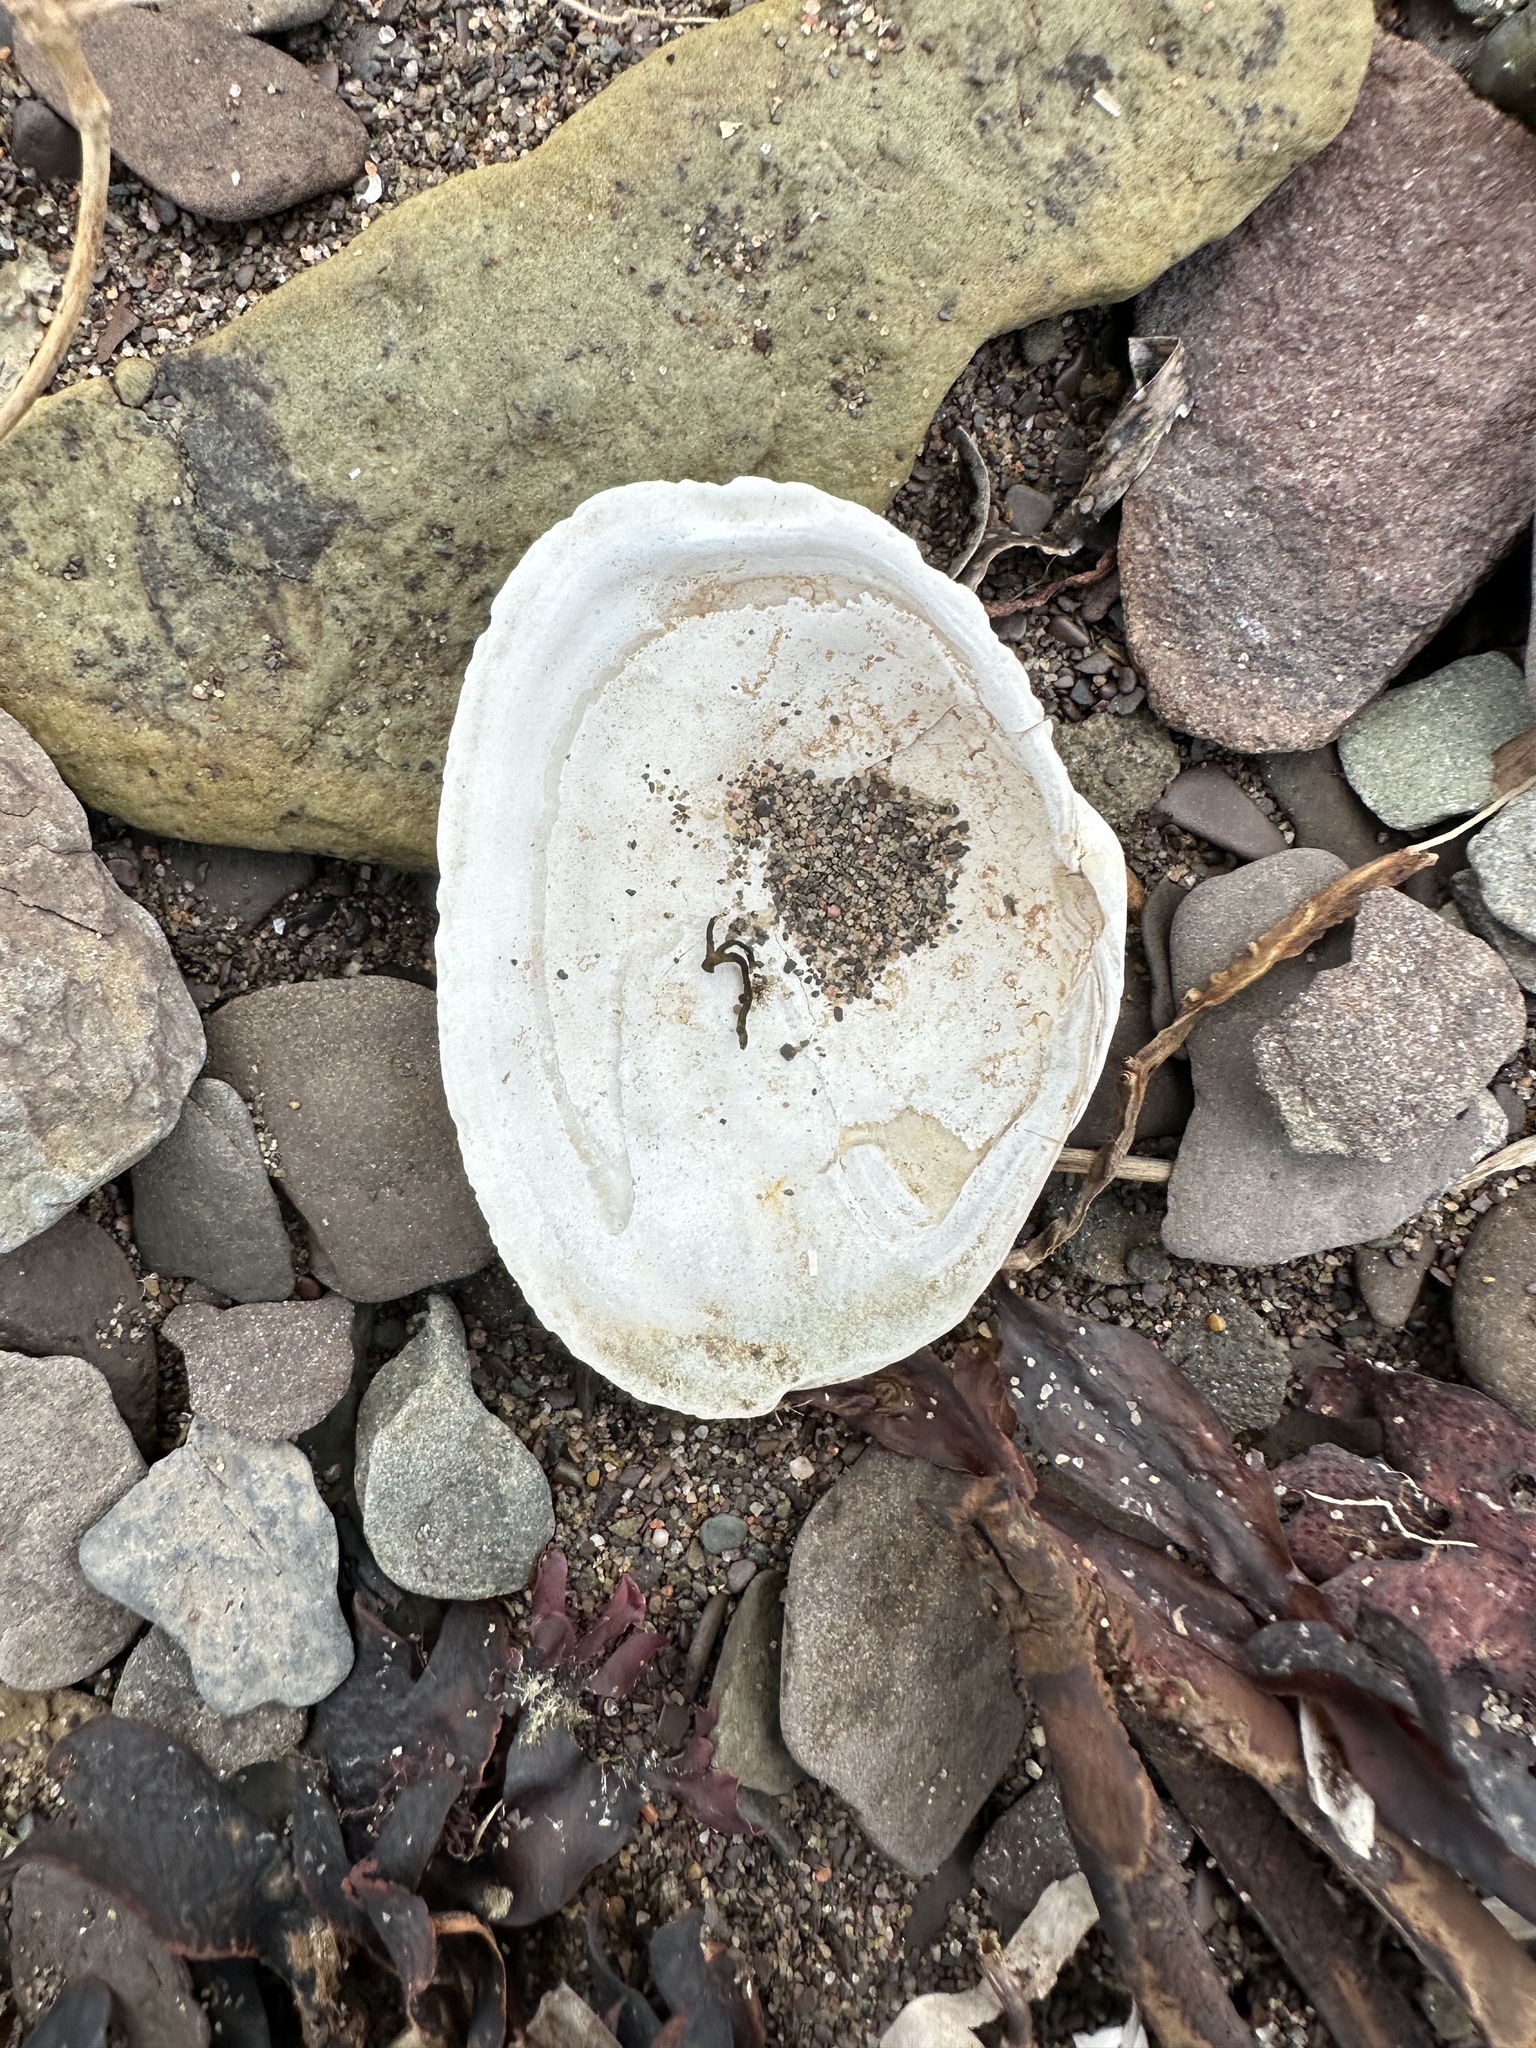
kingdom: Animalia
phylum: Mollusca
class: Bivalvia
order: Myida
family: Myidae
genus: Mya
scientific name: Mya arenaria
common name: Soft-shelled clam
